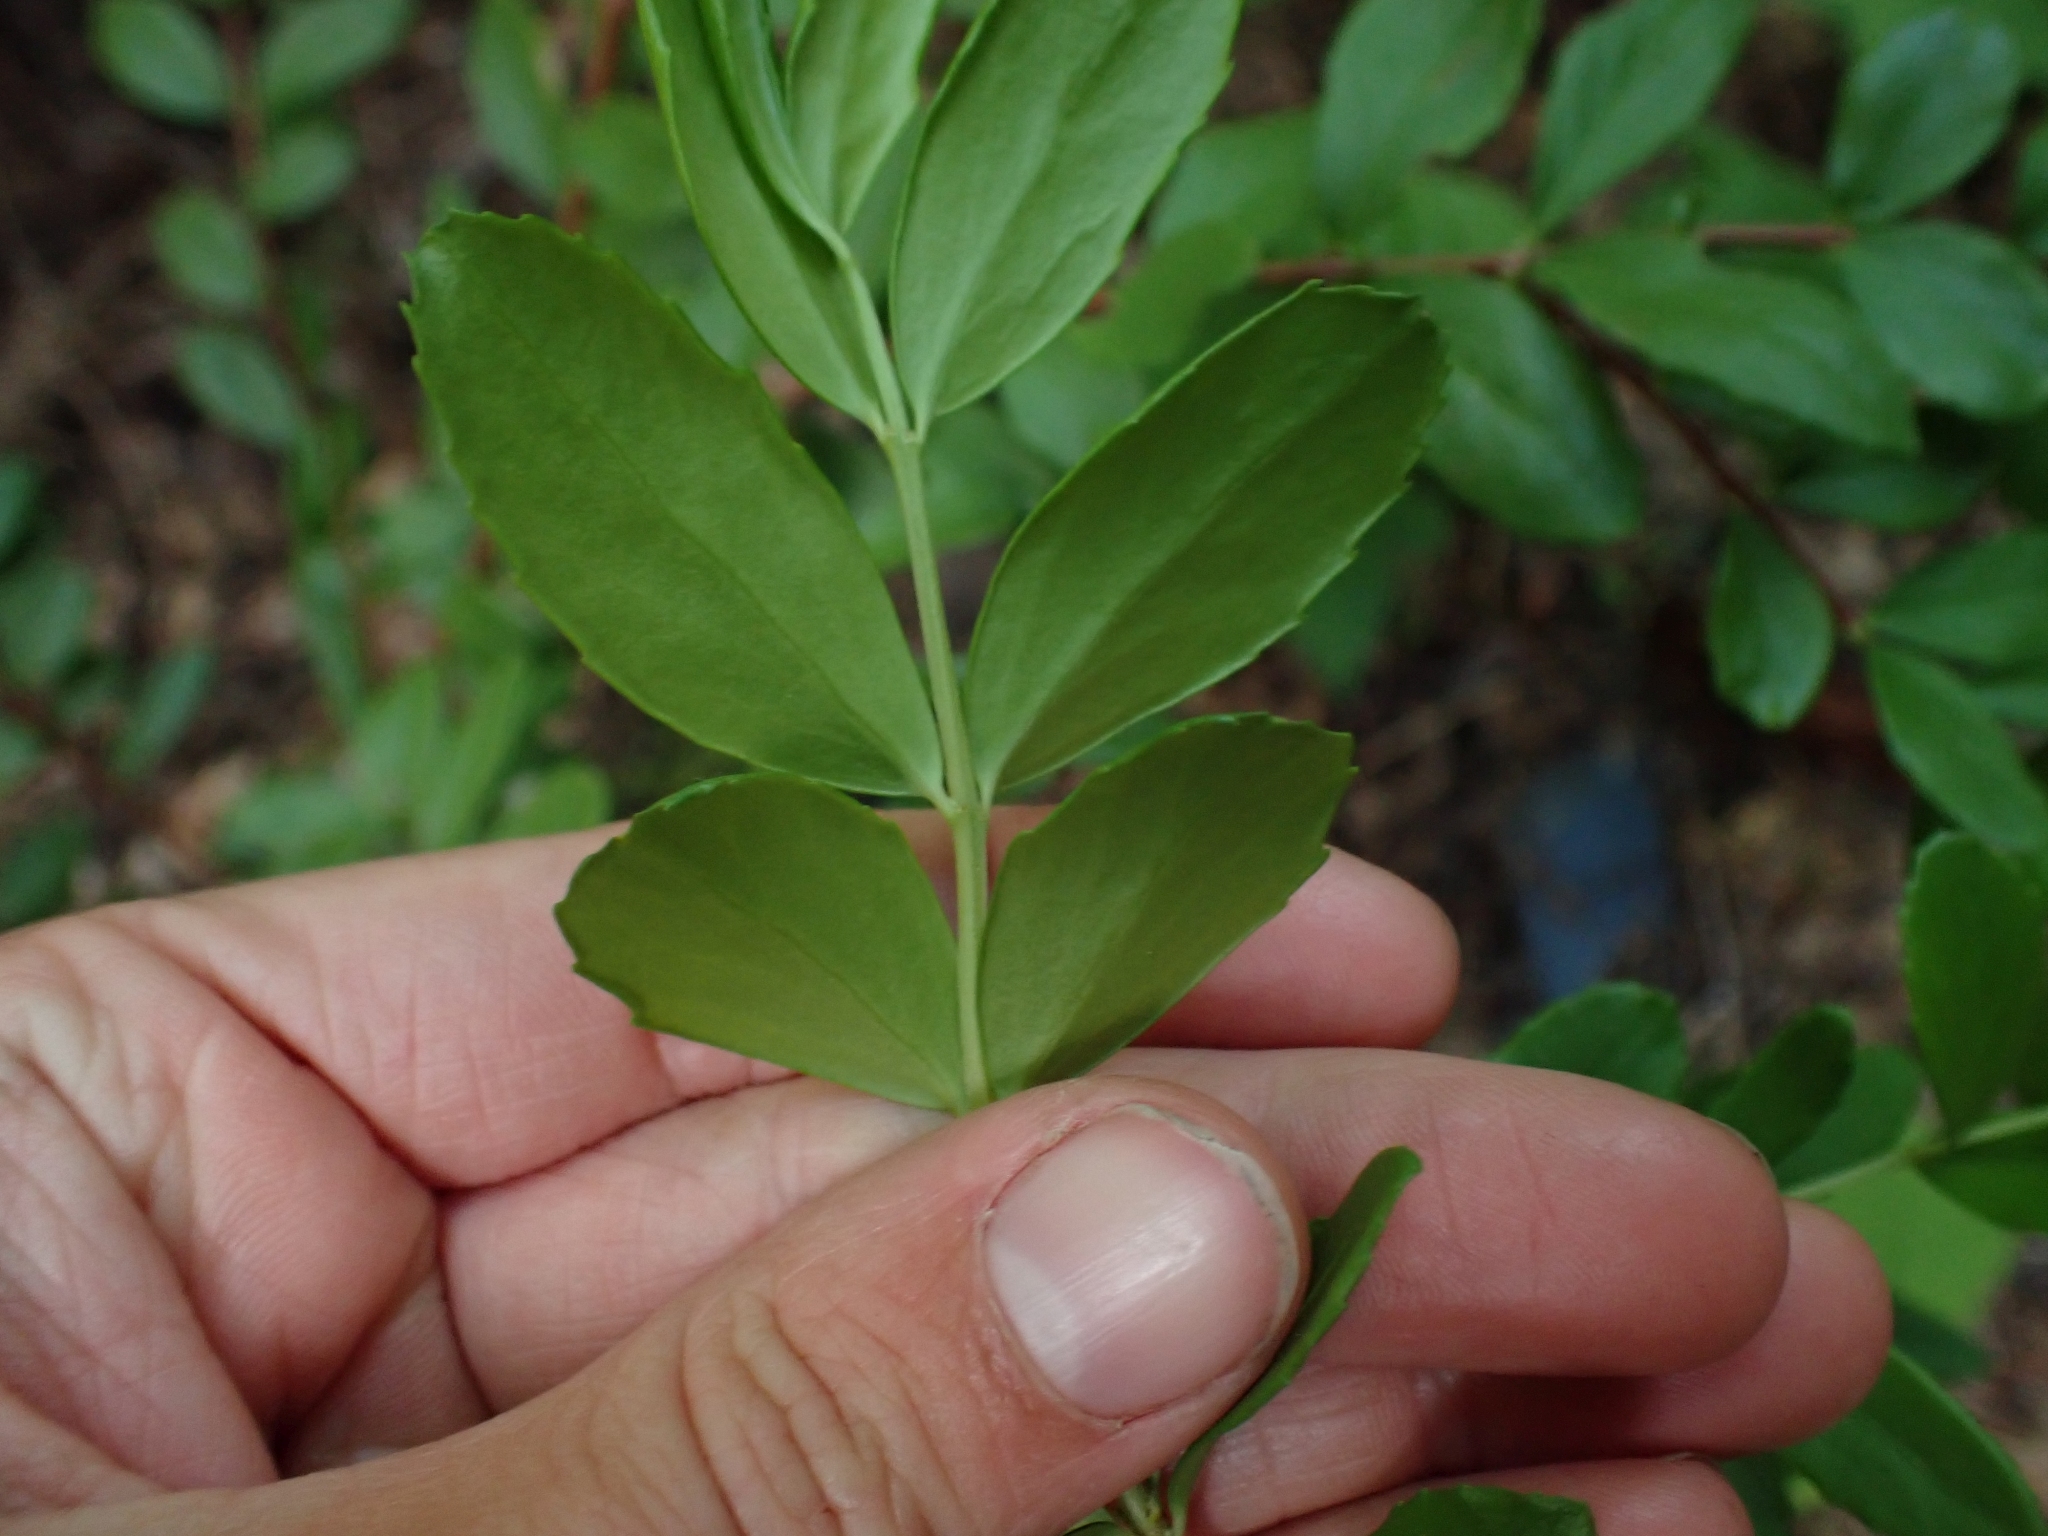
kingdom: Plantae
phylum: Tracheophyta
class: Magnoliopsida
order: Celastrales
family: Celastraceae
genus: Paxistima
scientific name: Paxistima myrsinites
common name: Mountain-lover
